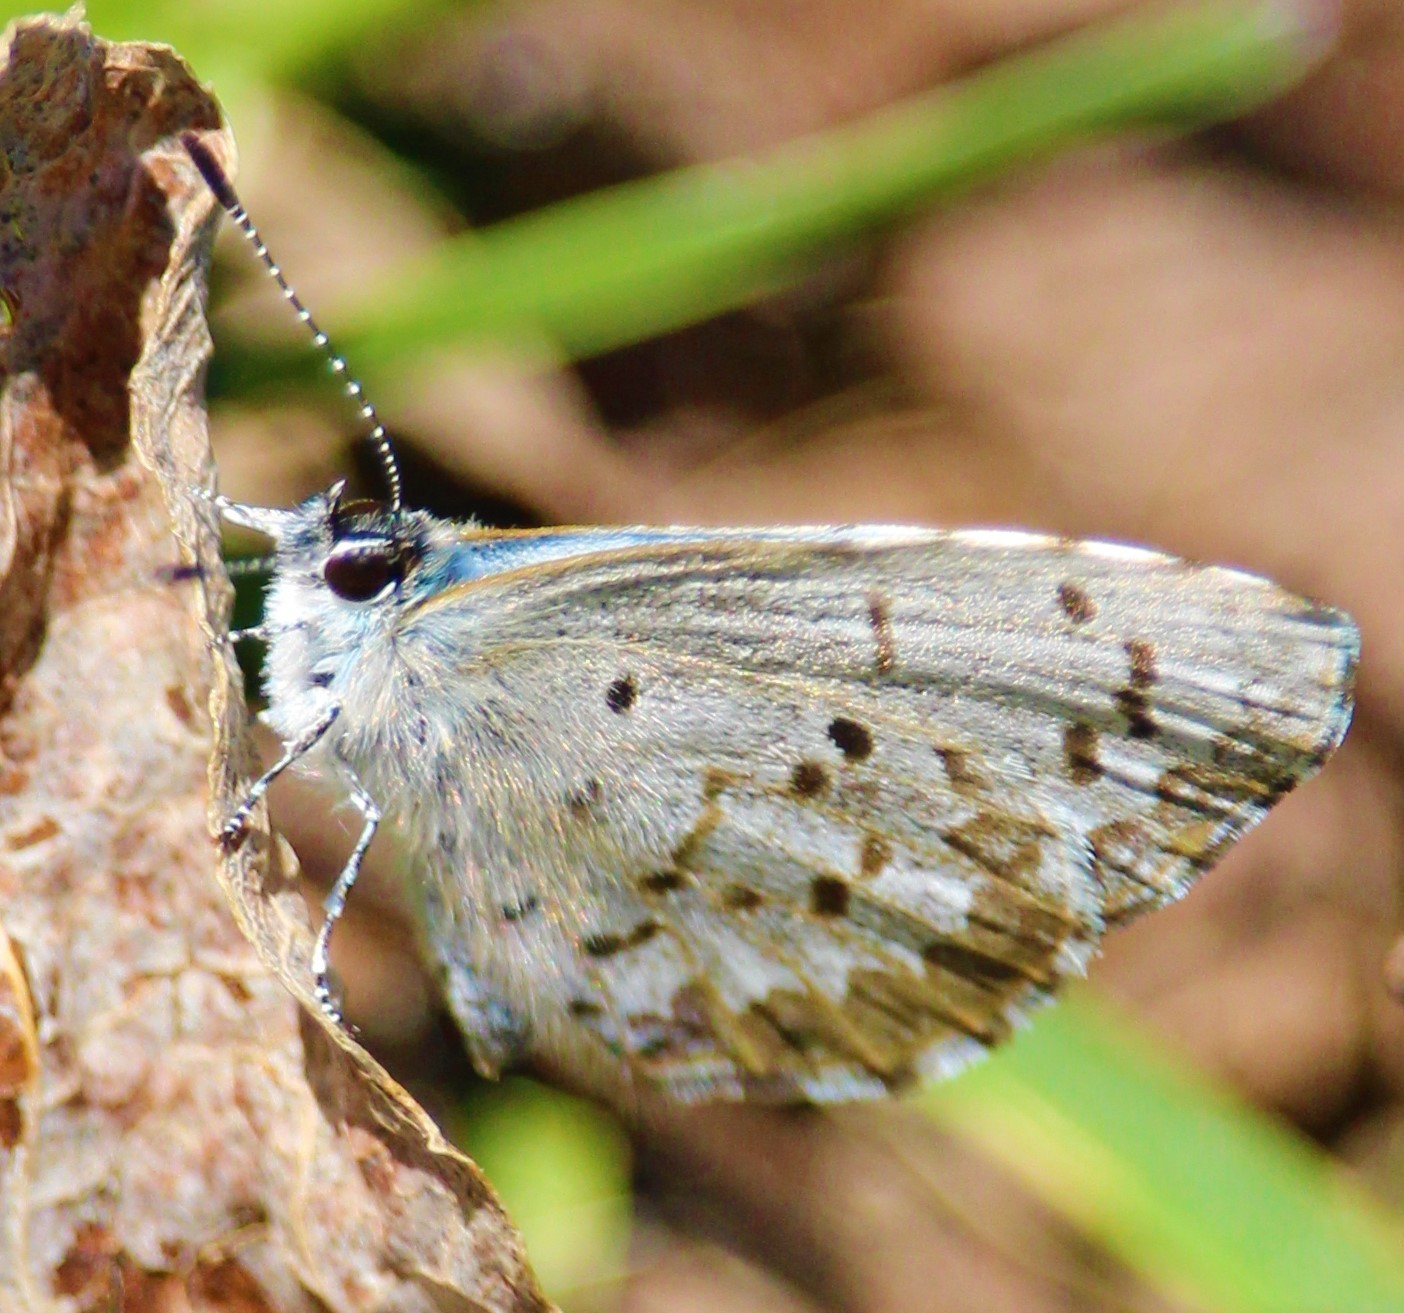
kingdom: Animalia
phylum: Arthropoda
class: Insecta
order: Lepidoptera
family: Lycaenidae
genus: Celastrina
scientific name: Celastrina lucia
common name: Lucia azure
